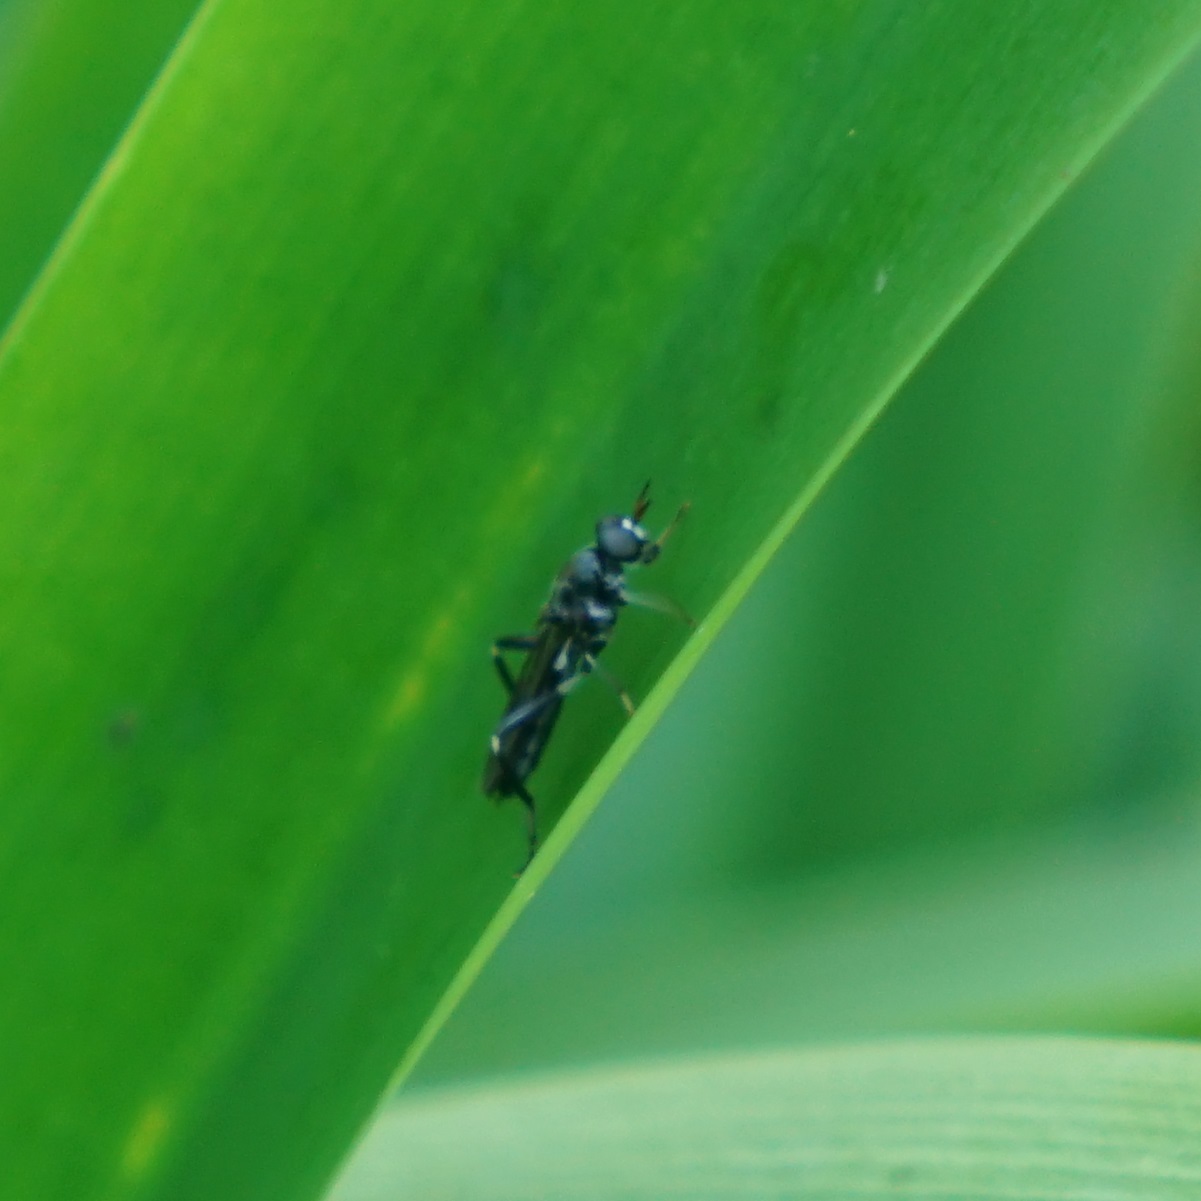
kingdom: Animalia
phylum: Arthropoda
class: Insecta
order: Diptera
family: Stratiomyidae
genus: Exaireta
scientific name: Exaireta spinigera
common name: Blue soldier fly
